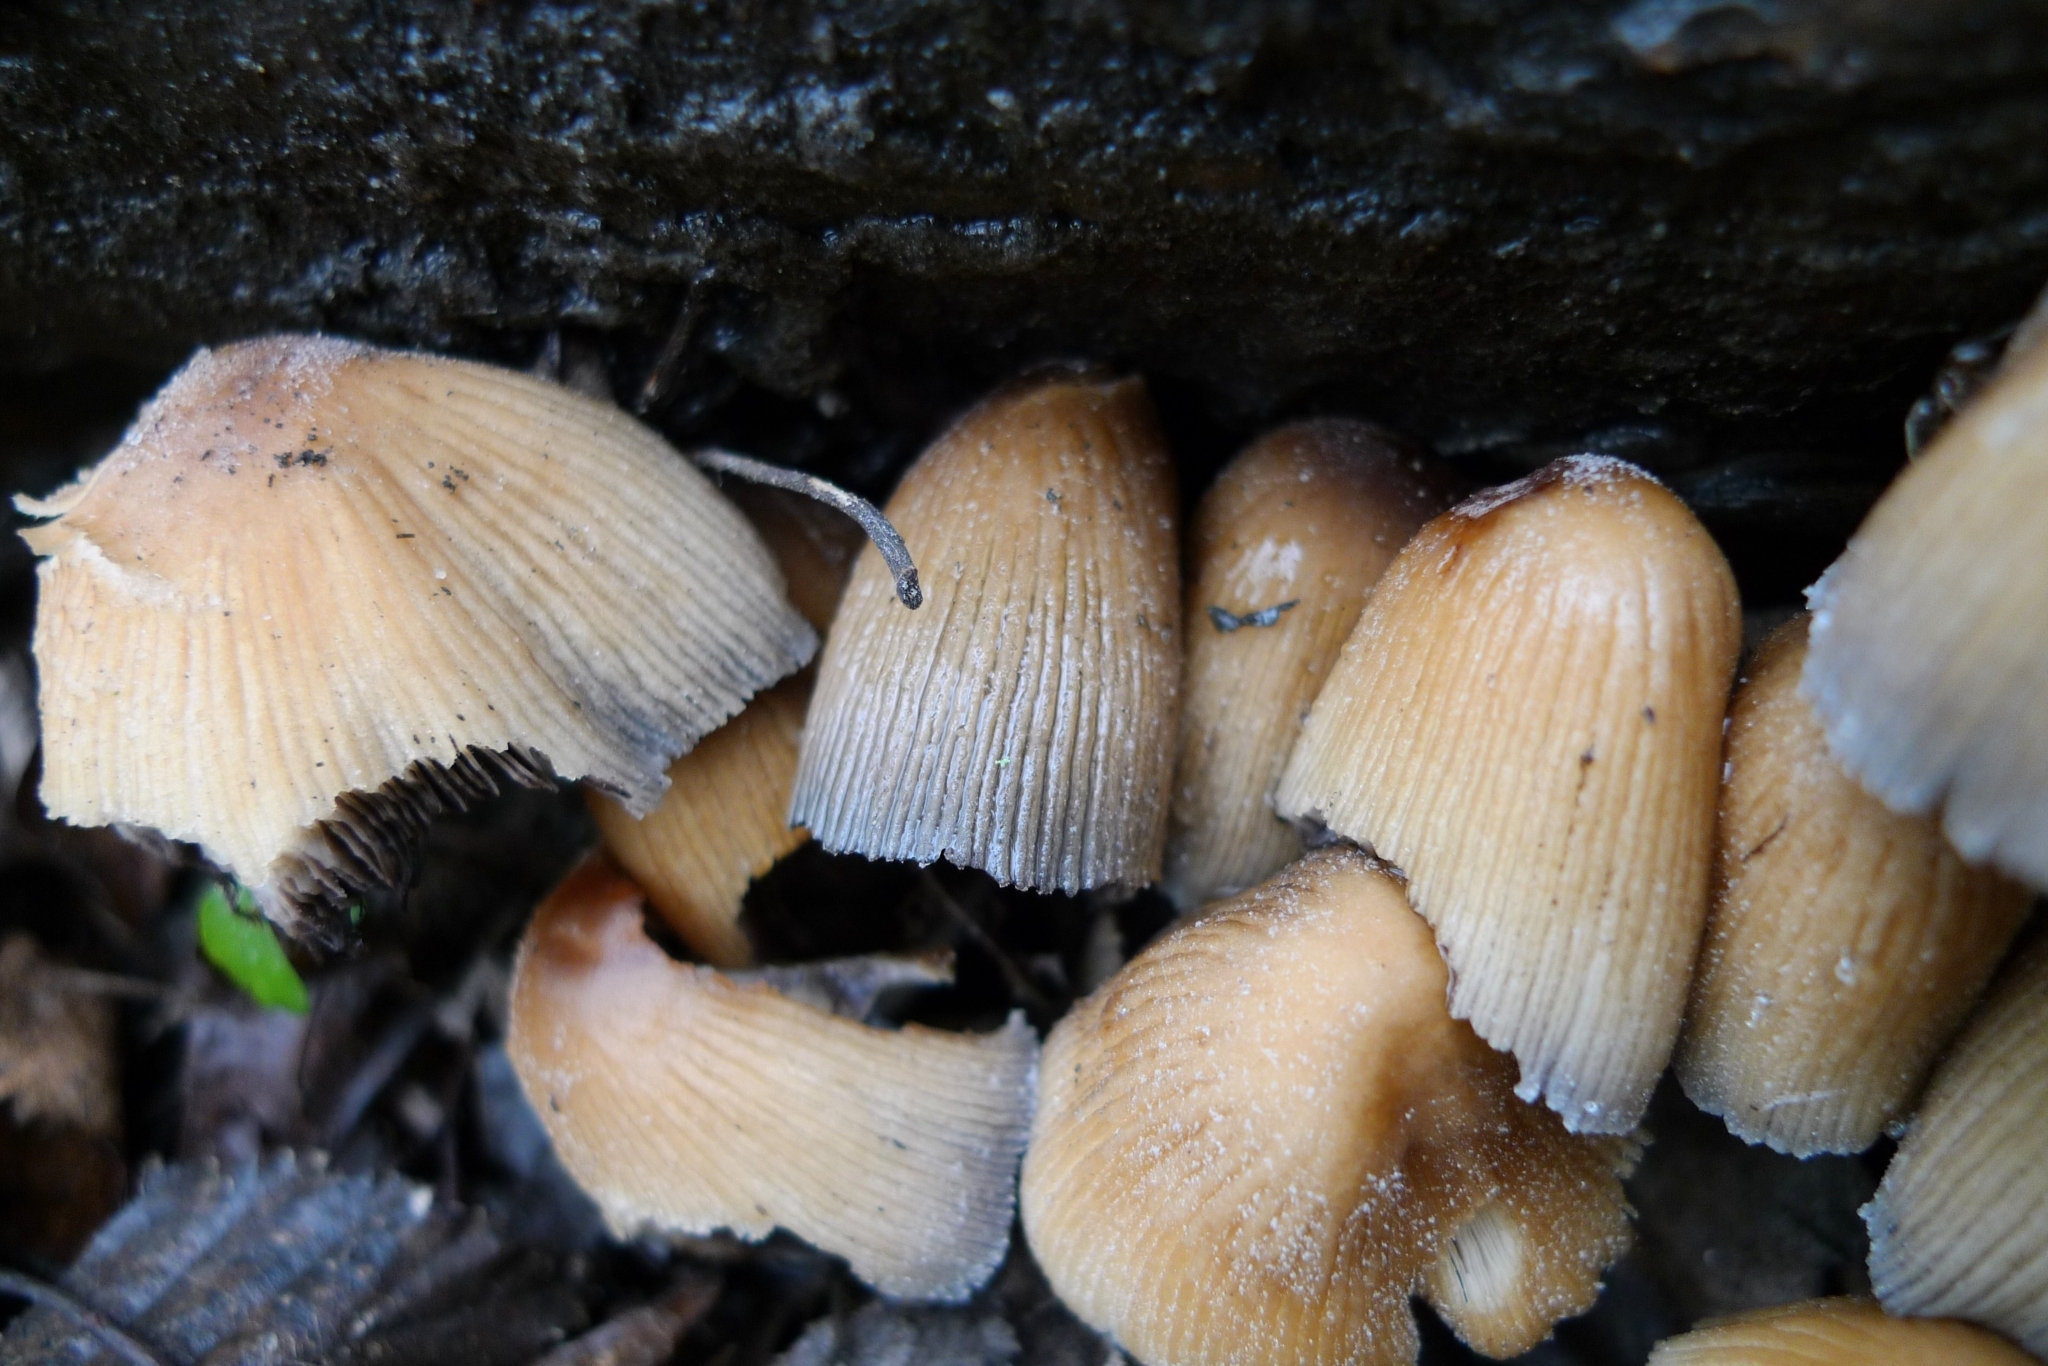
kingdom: Fungi
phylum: Basidiomycota
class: Agaricomycetes
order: Agaricales
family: Psathyrellaceae
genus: Coprinellus
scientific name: Coprinellus micaceus
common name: Glistening ink-cap
